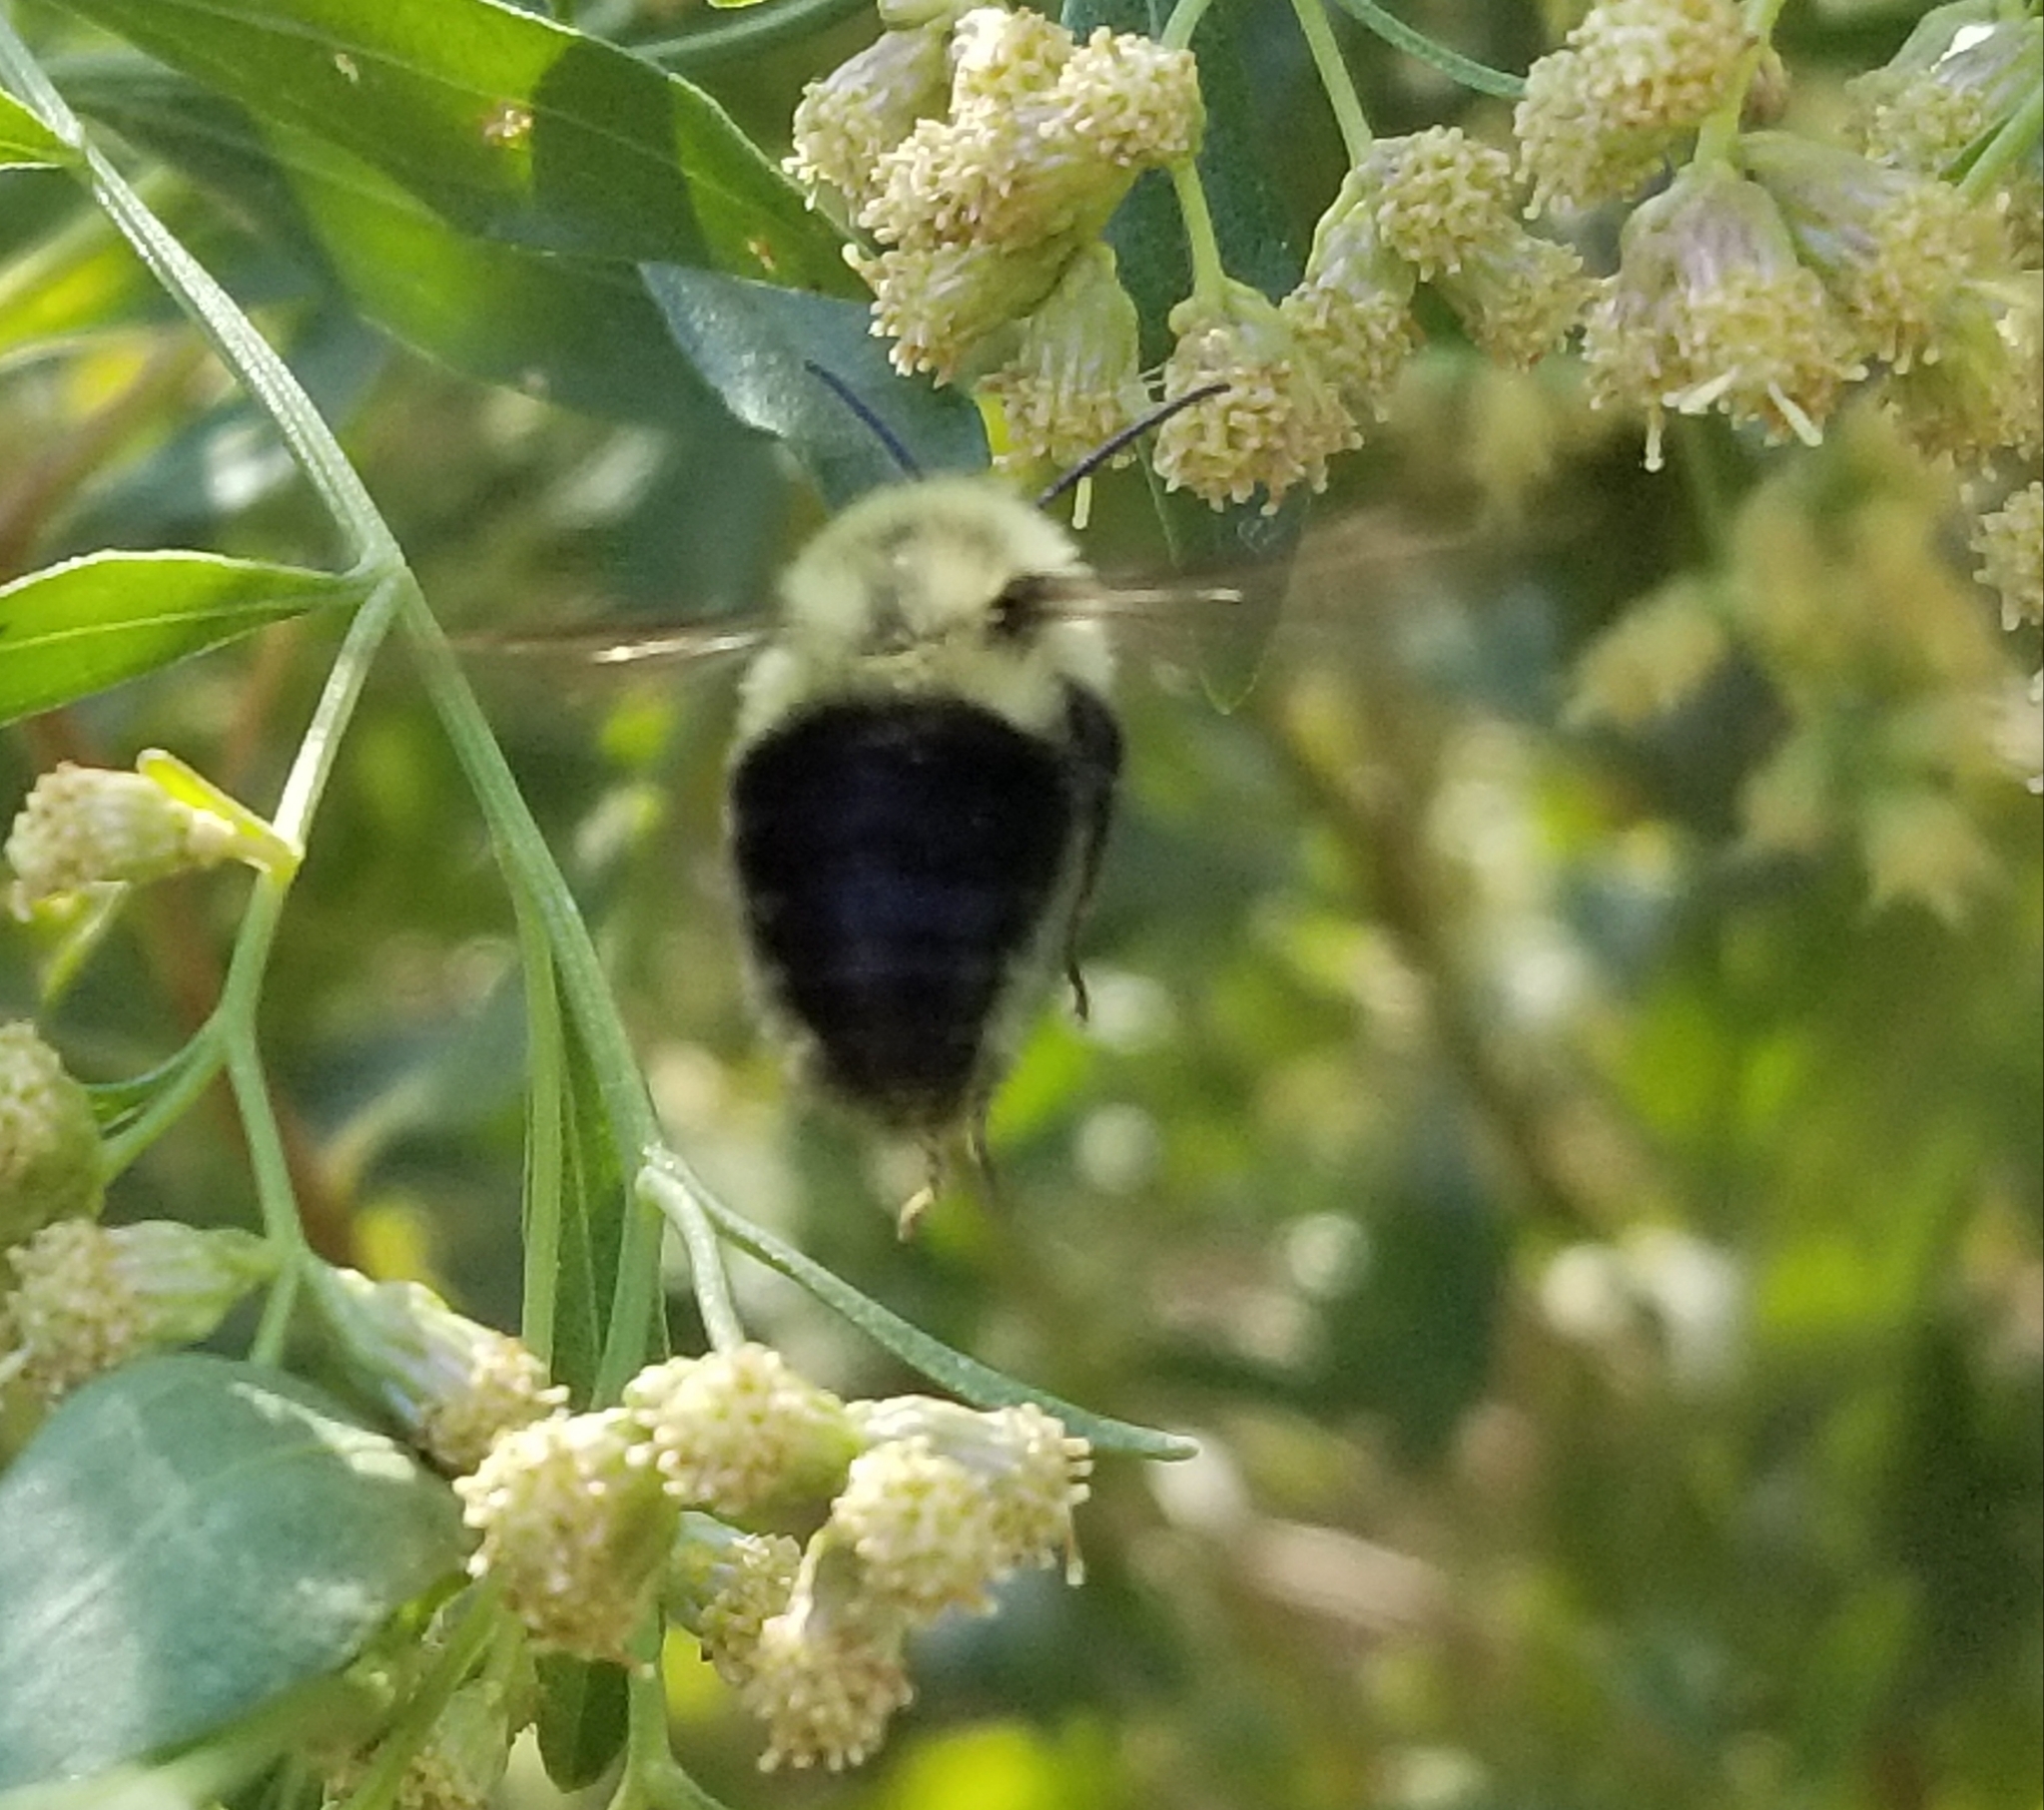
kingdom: Animalia
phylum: Arthropoda
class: Insecta
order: Hymenoptera
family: Apidae
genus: Bombus
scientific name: Bombus impatiens
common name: Common eastern bumble bee
